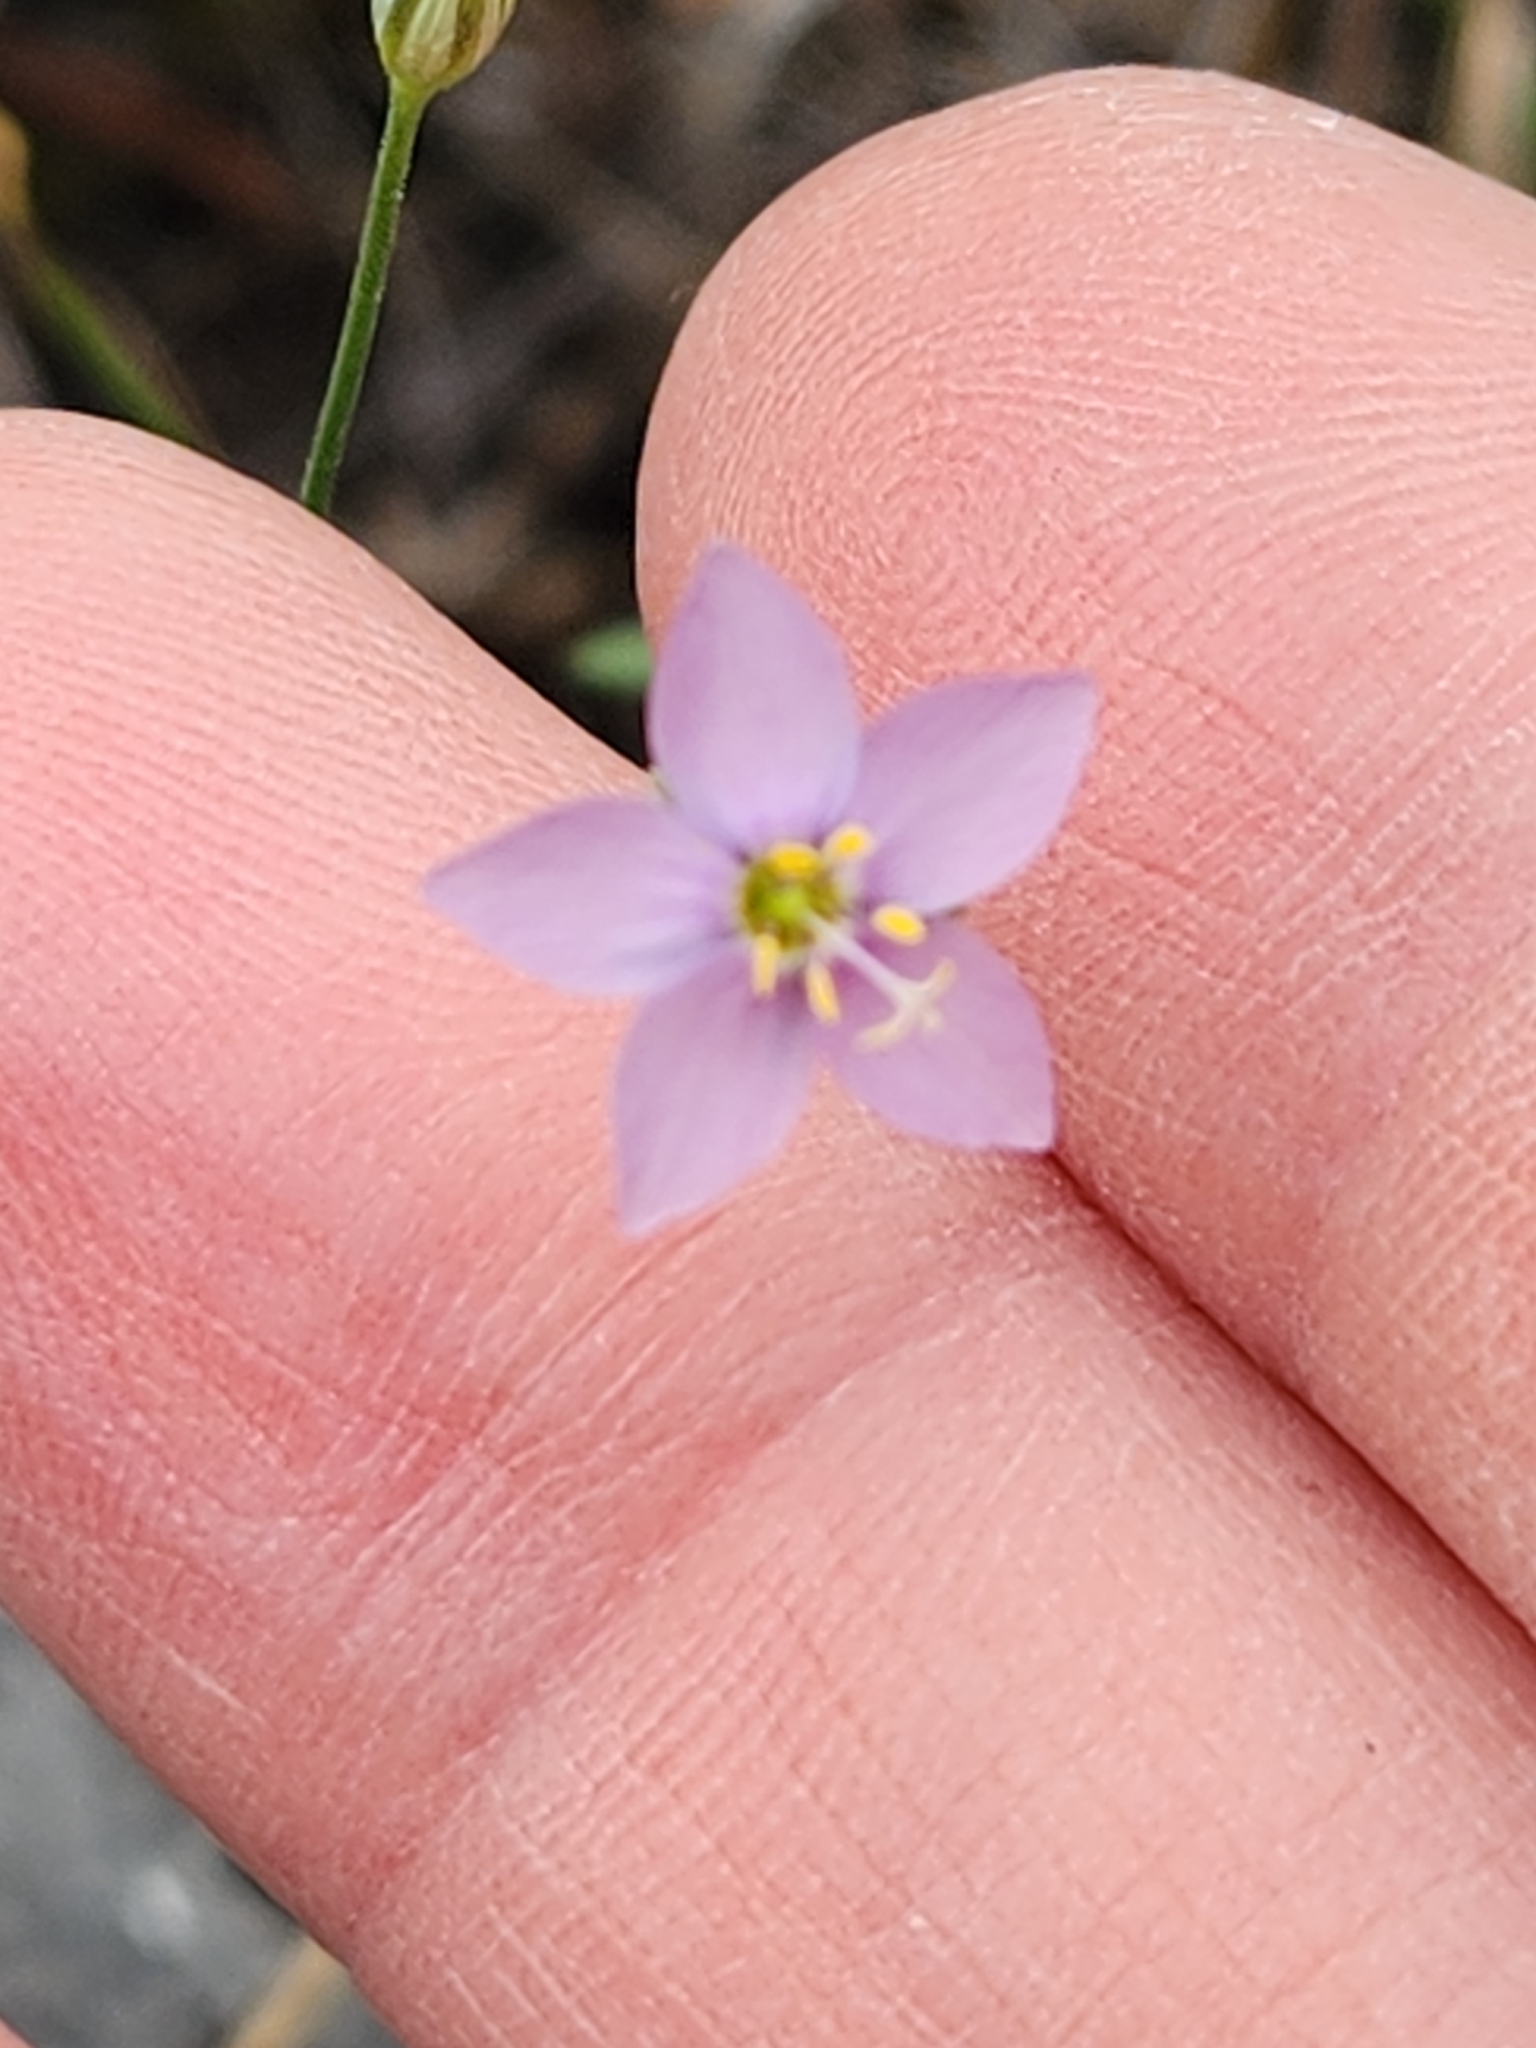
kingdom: Plantae
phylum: Tracheophyta
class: Magnoliopsida
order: Ericales
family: Polemoniaceae
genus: Giliastrum
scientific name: Giliastrum incisum
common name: Splitleaf gilia
